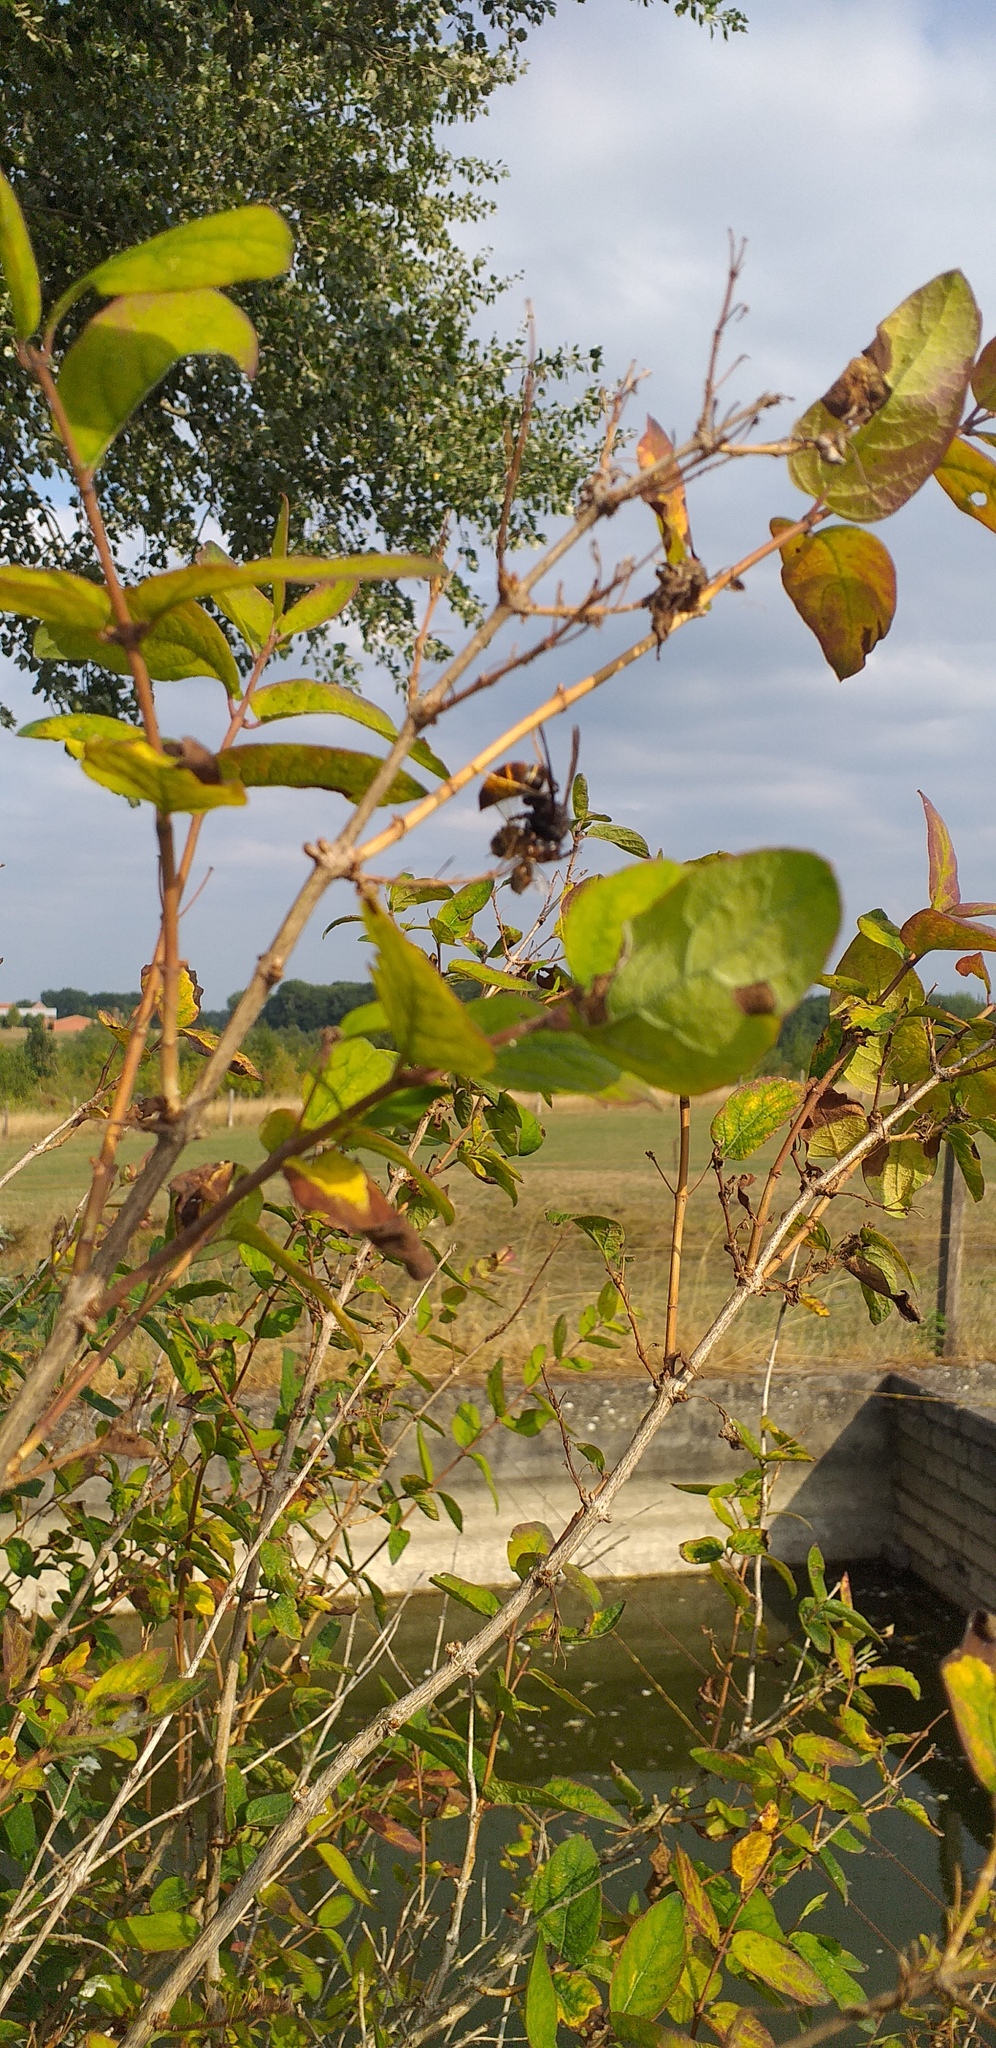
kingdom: Animalia
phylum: Arthropoda
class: Insecta
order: Hymenoptera
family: Vespidae
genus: Vespa
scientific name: Vespa velutina
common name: Asian hornet
